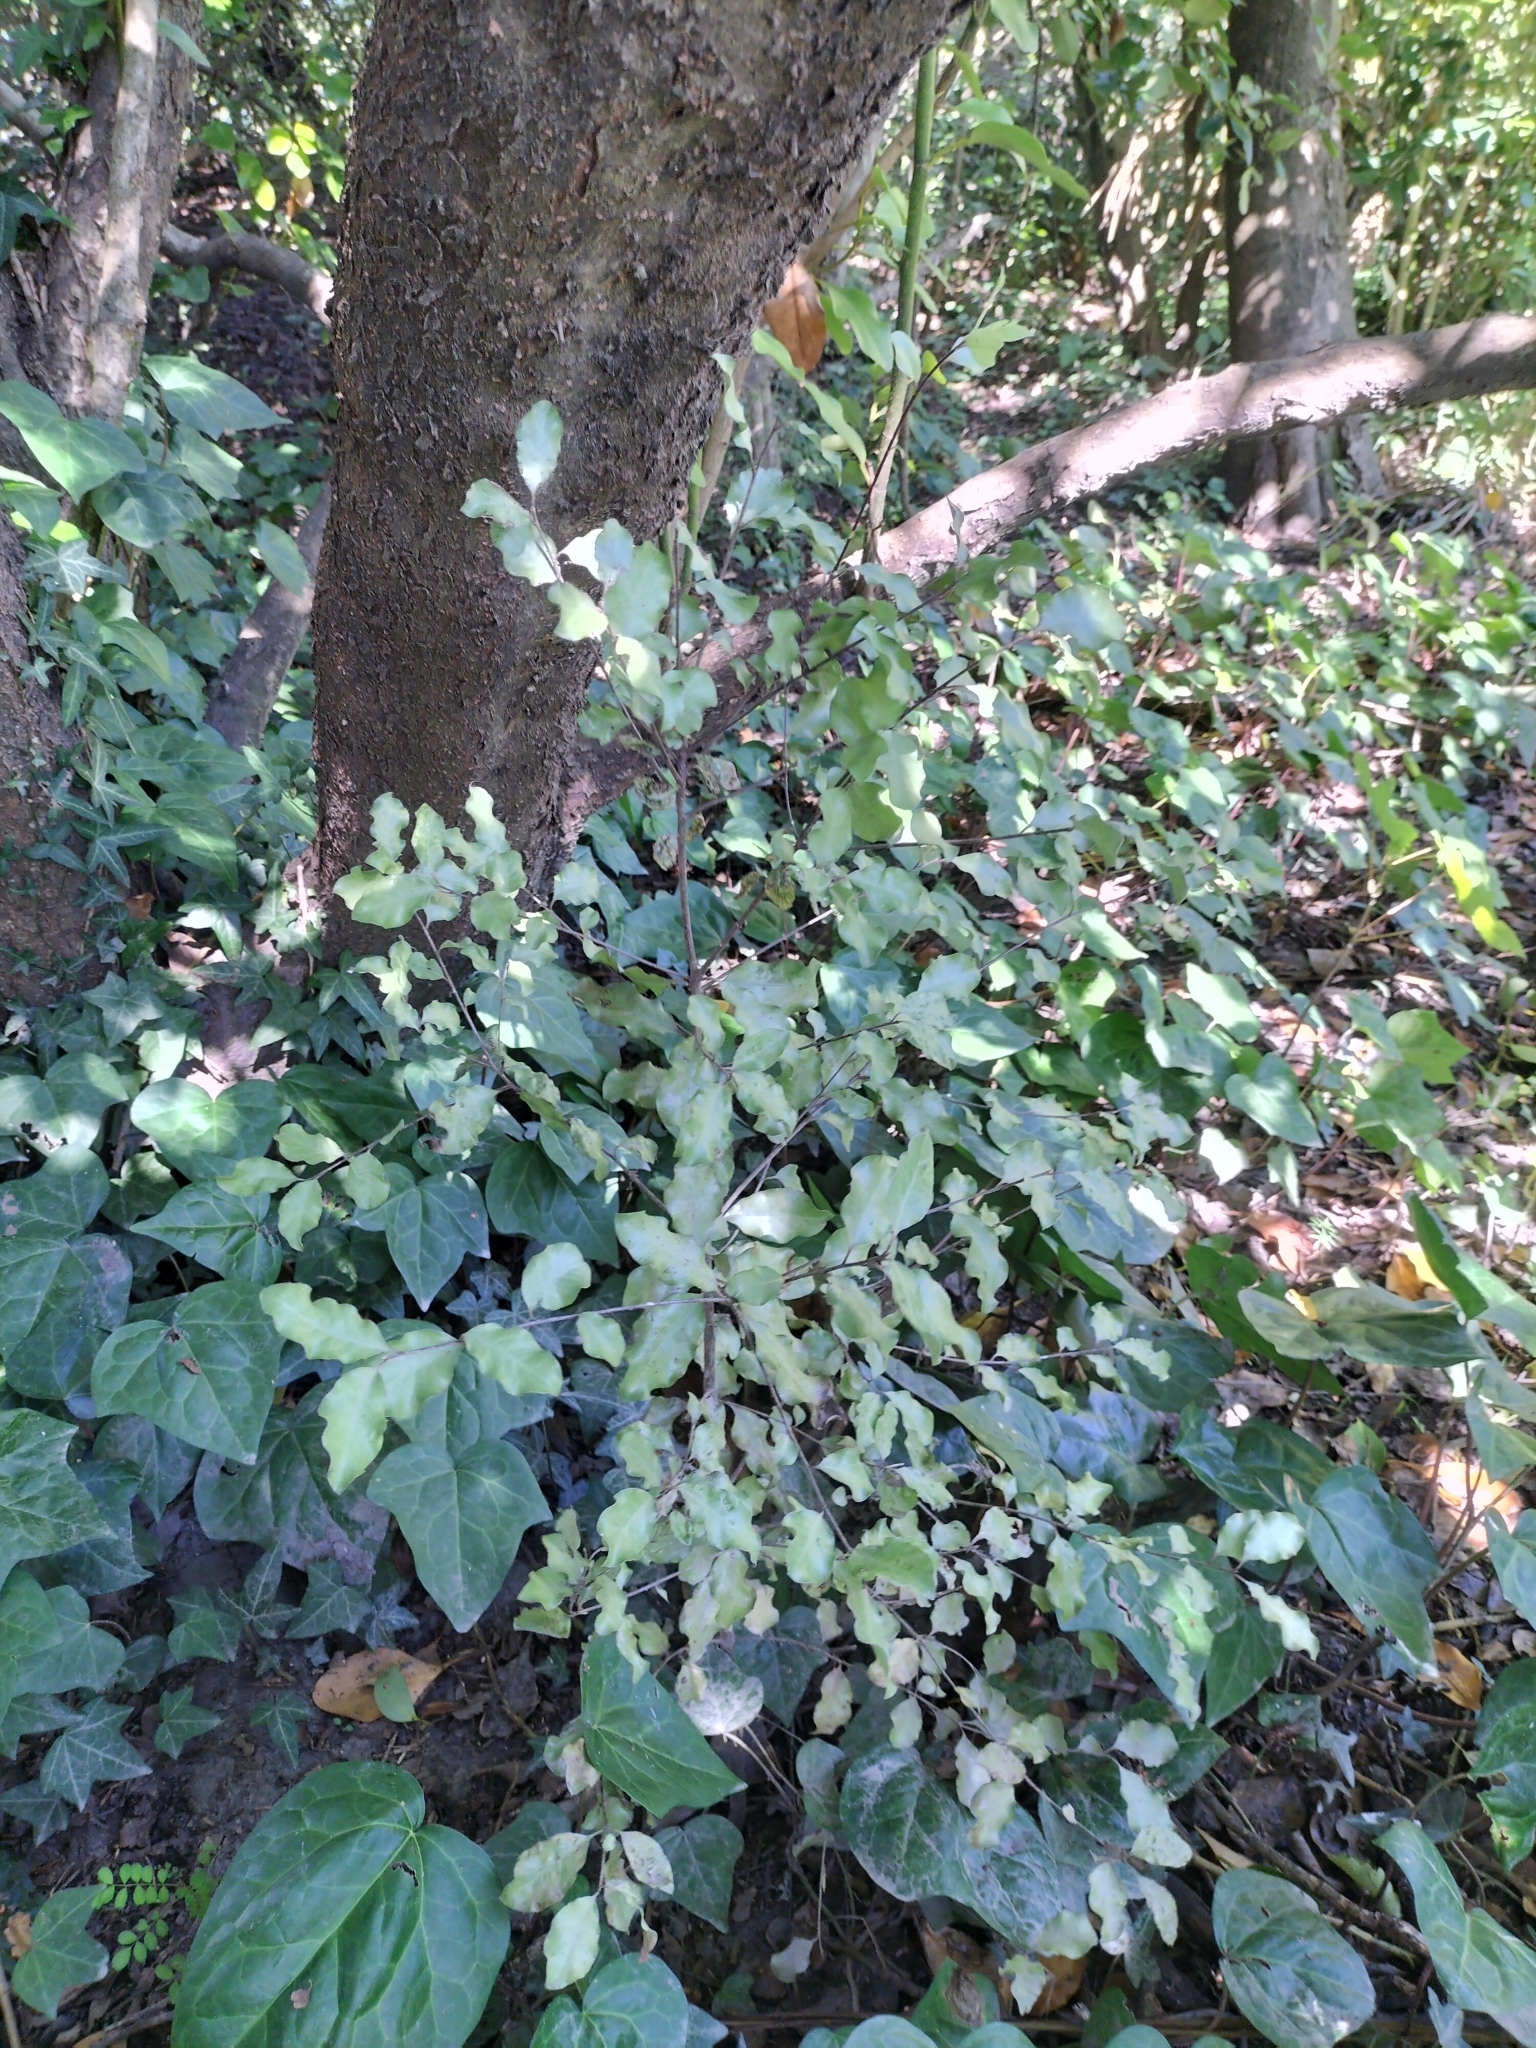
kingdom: Plantae
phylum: Tracheophyta
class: Magnoliopsida
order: Apiales
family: Pittosporaceae
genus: Pittosporum
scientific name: Pittosporum tenuifolium
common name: Kohuhu
